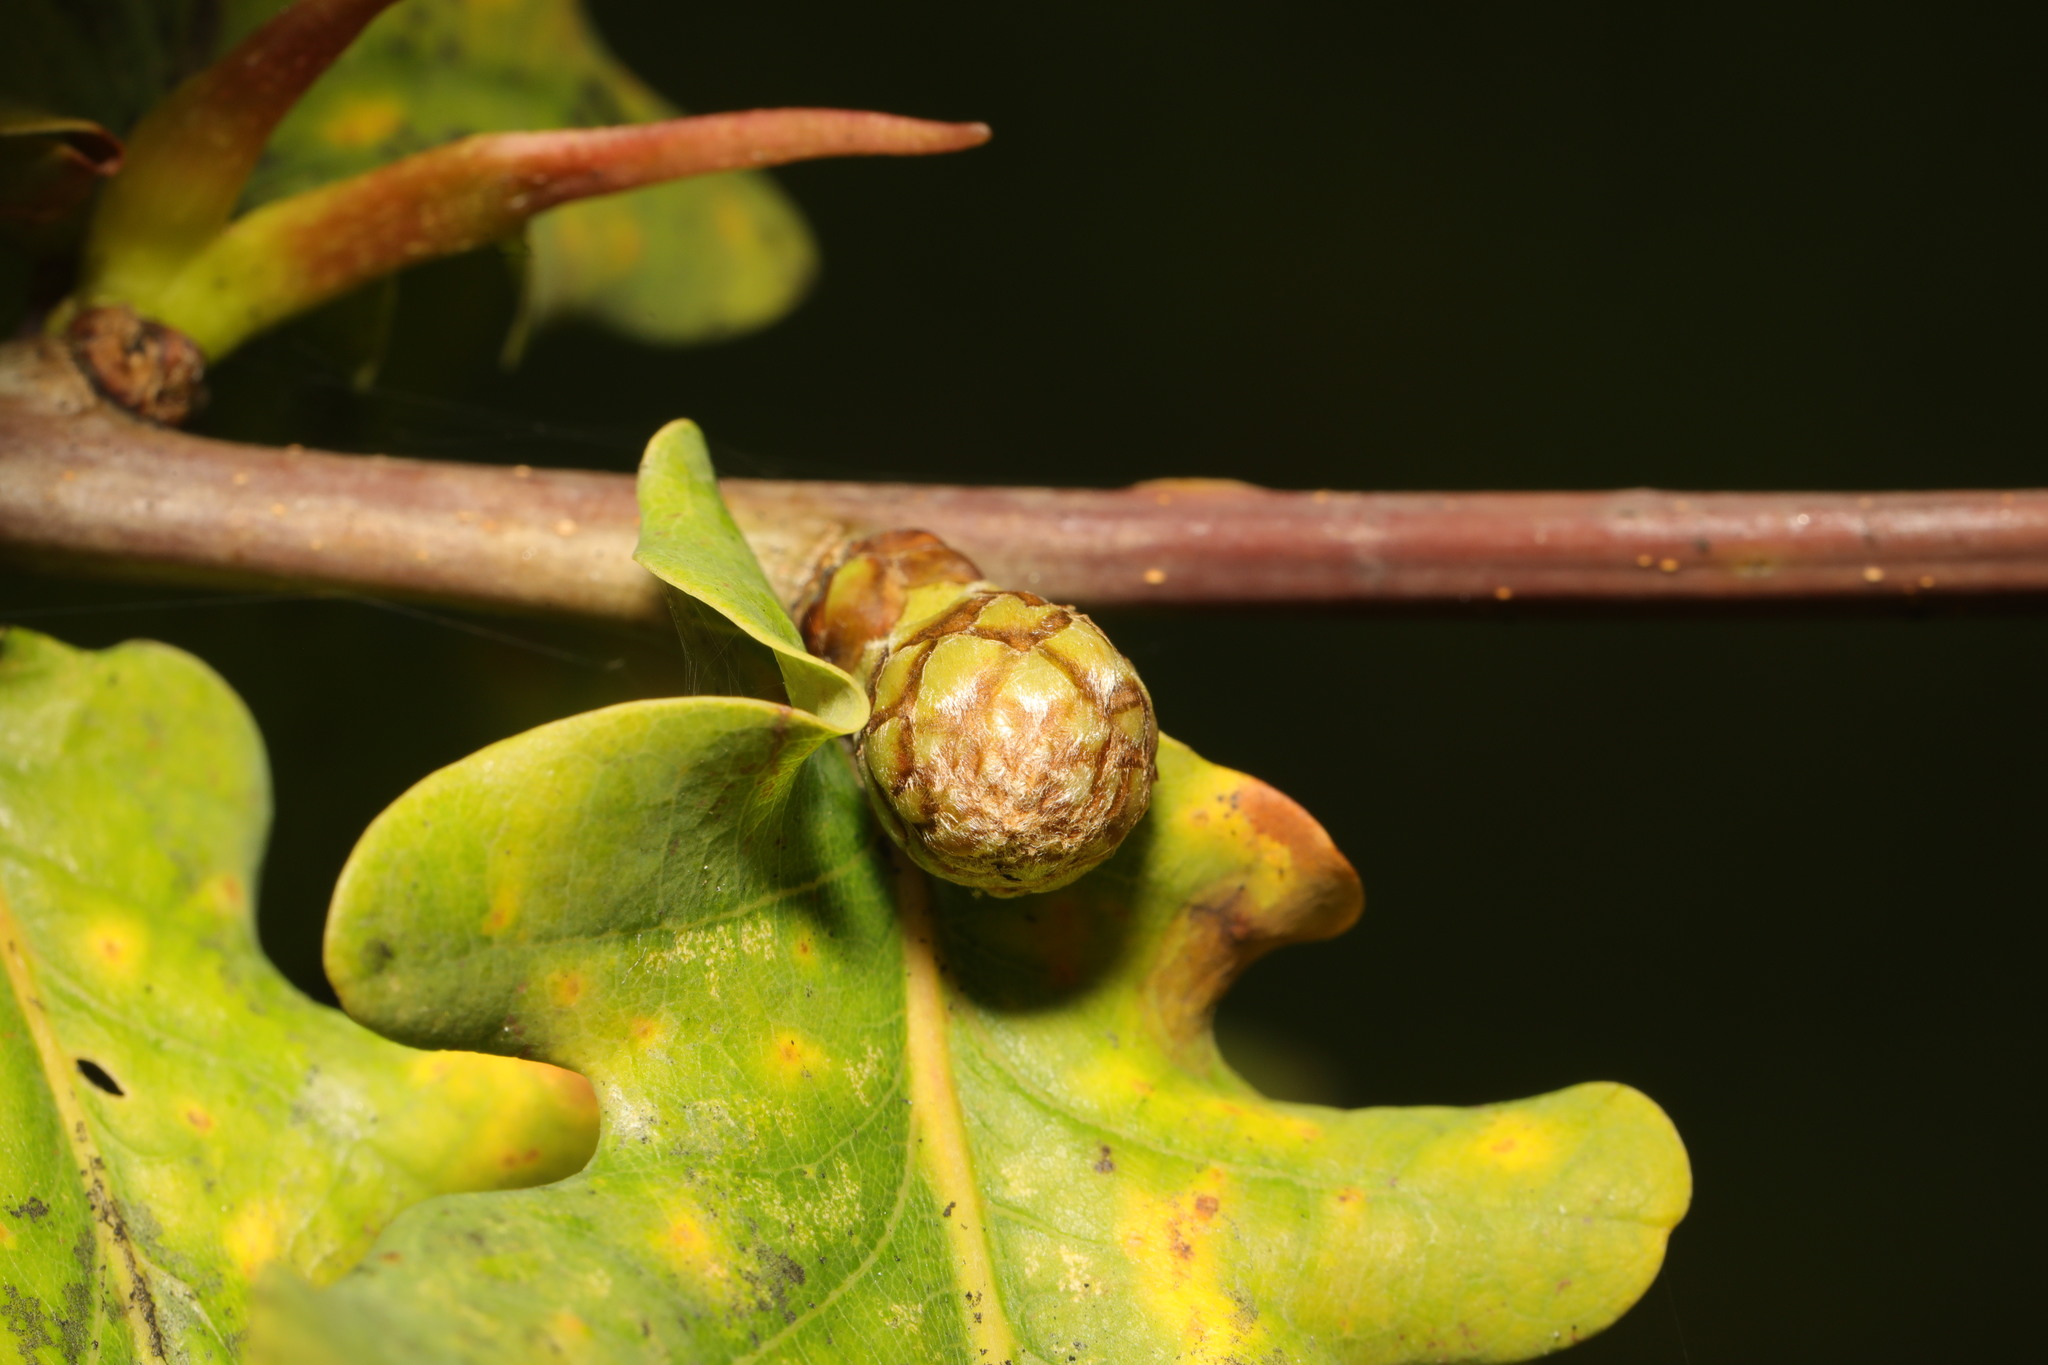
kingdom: Animalia
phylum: Arthropoda
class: Insecta
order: Hymenoptera
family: Cynipidae
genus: Andricus
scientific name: Andricus foecundatrix
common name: Artichoke gall
